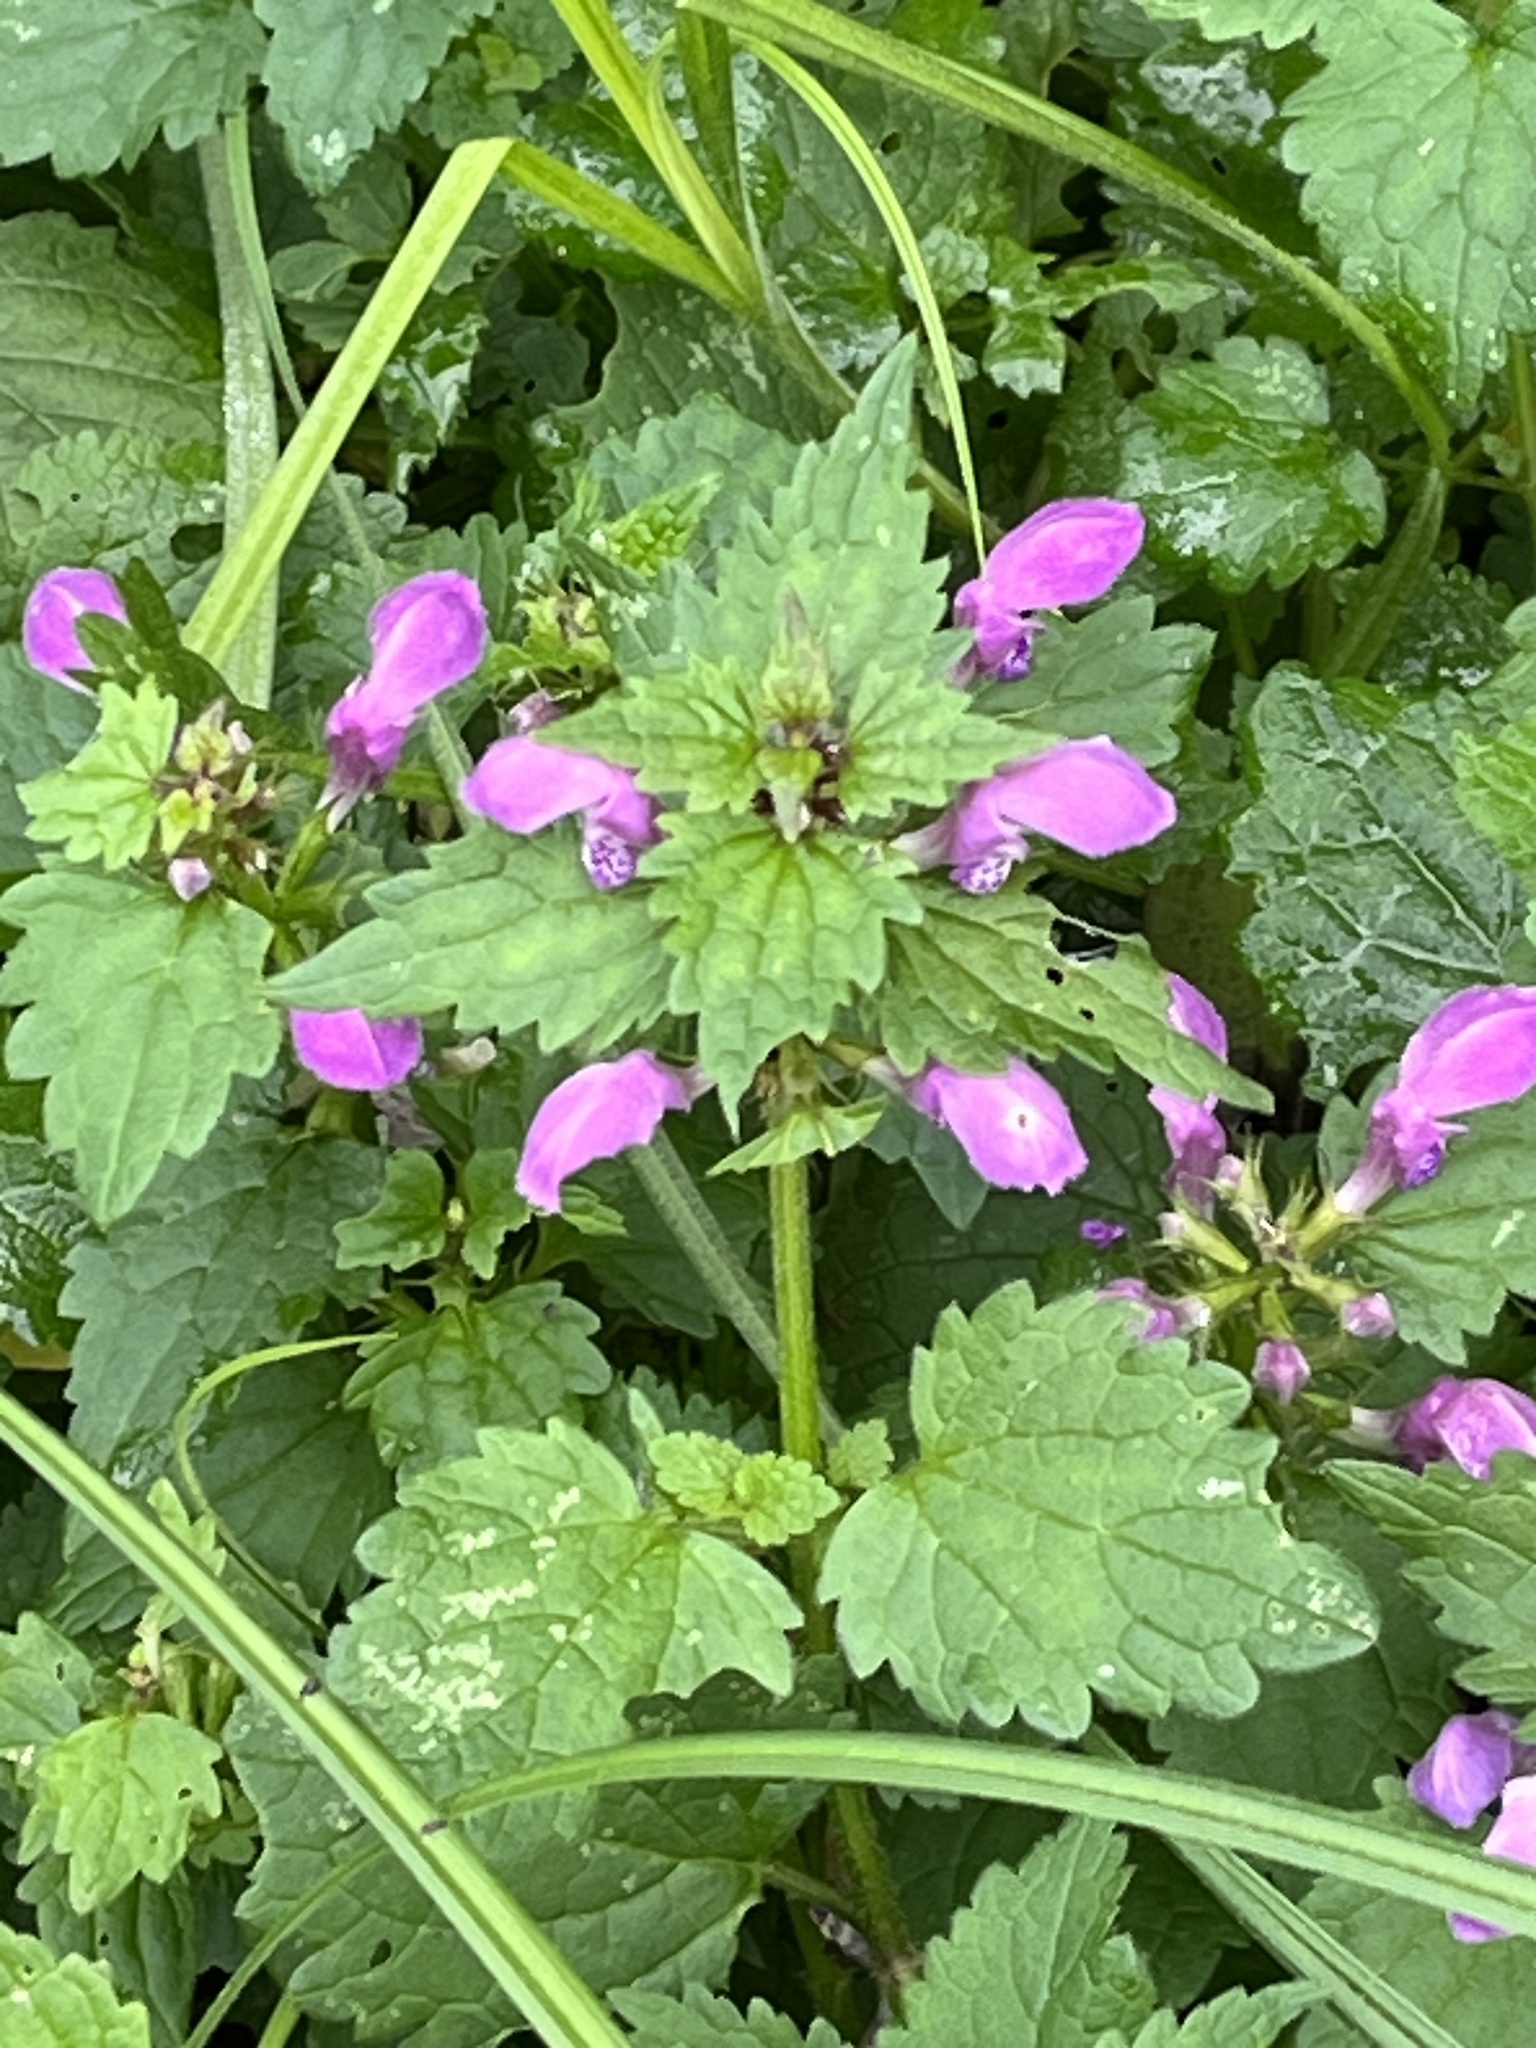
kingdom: Plantae
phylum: Tracheophyta
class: Magnoliopsida
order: Lamiales
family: Lamiaceae
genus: Lamium
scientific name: Lamium maculatum
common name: Spotted dead-nettle
